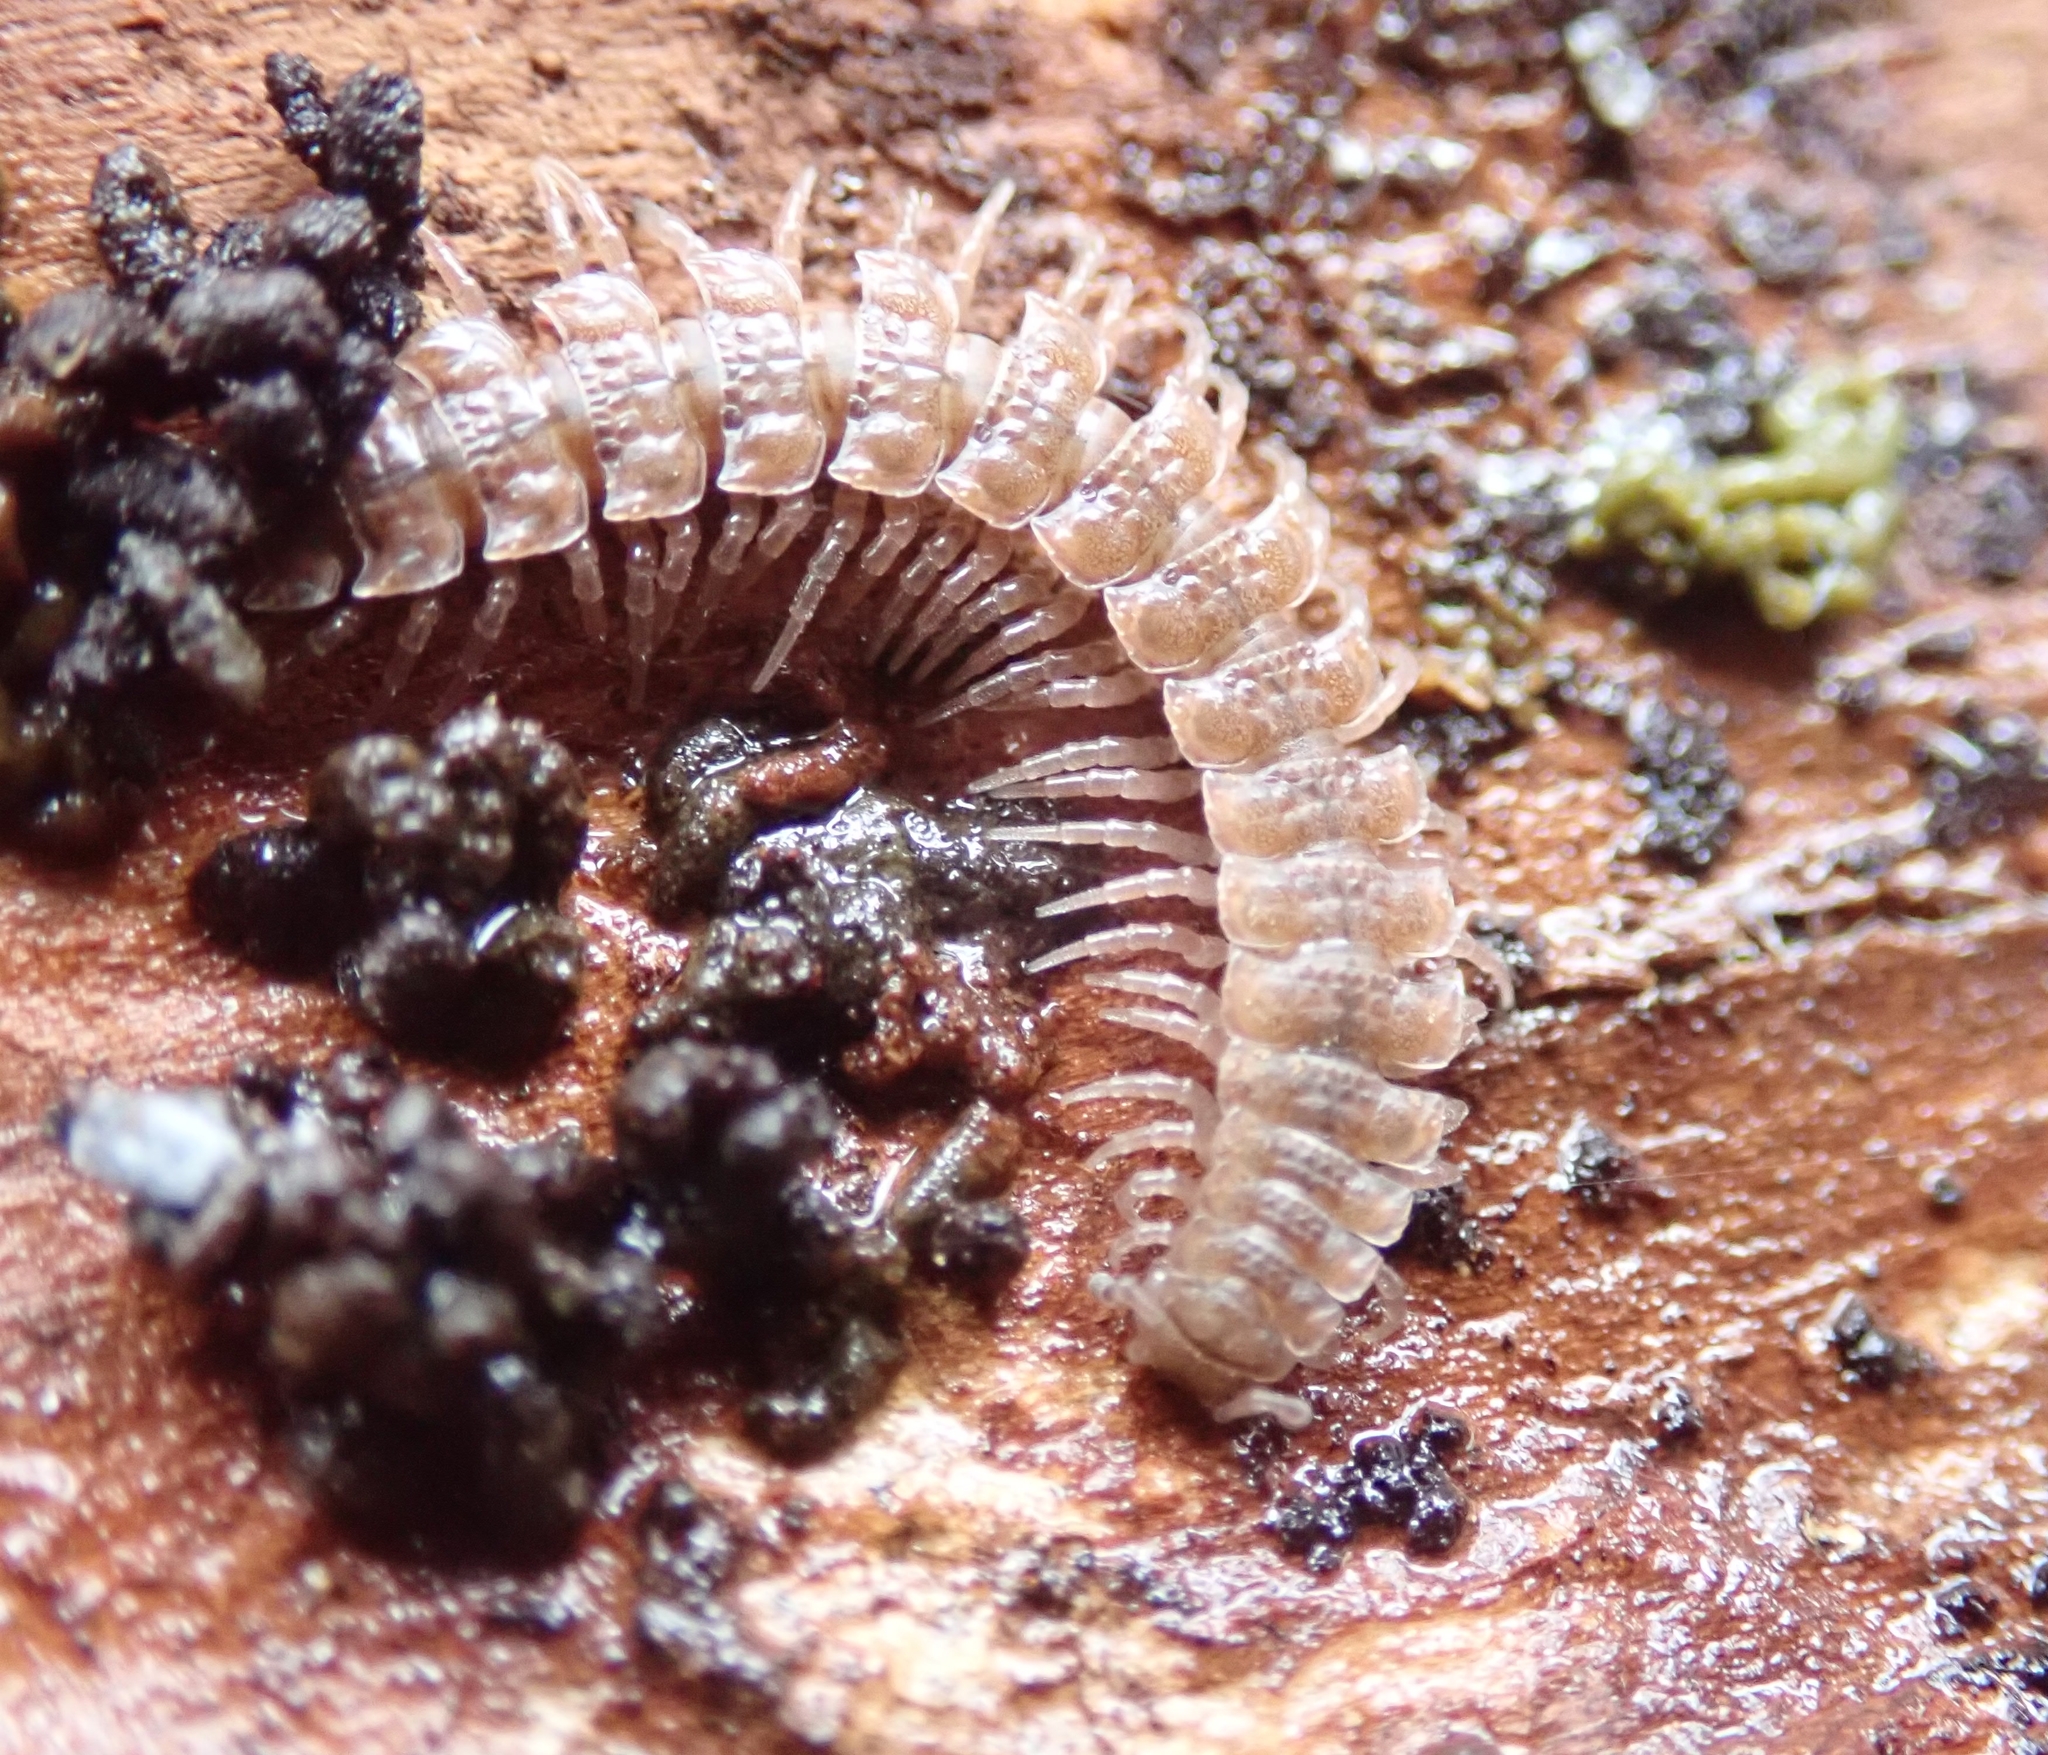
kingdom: Animalia
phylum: Arthropoda
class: Diplopoda
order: Polydesmida
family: Polydesmidae
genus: Polydesmus
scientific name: Polydesmus angustus
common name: Flat millipede
